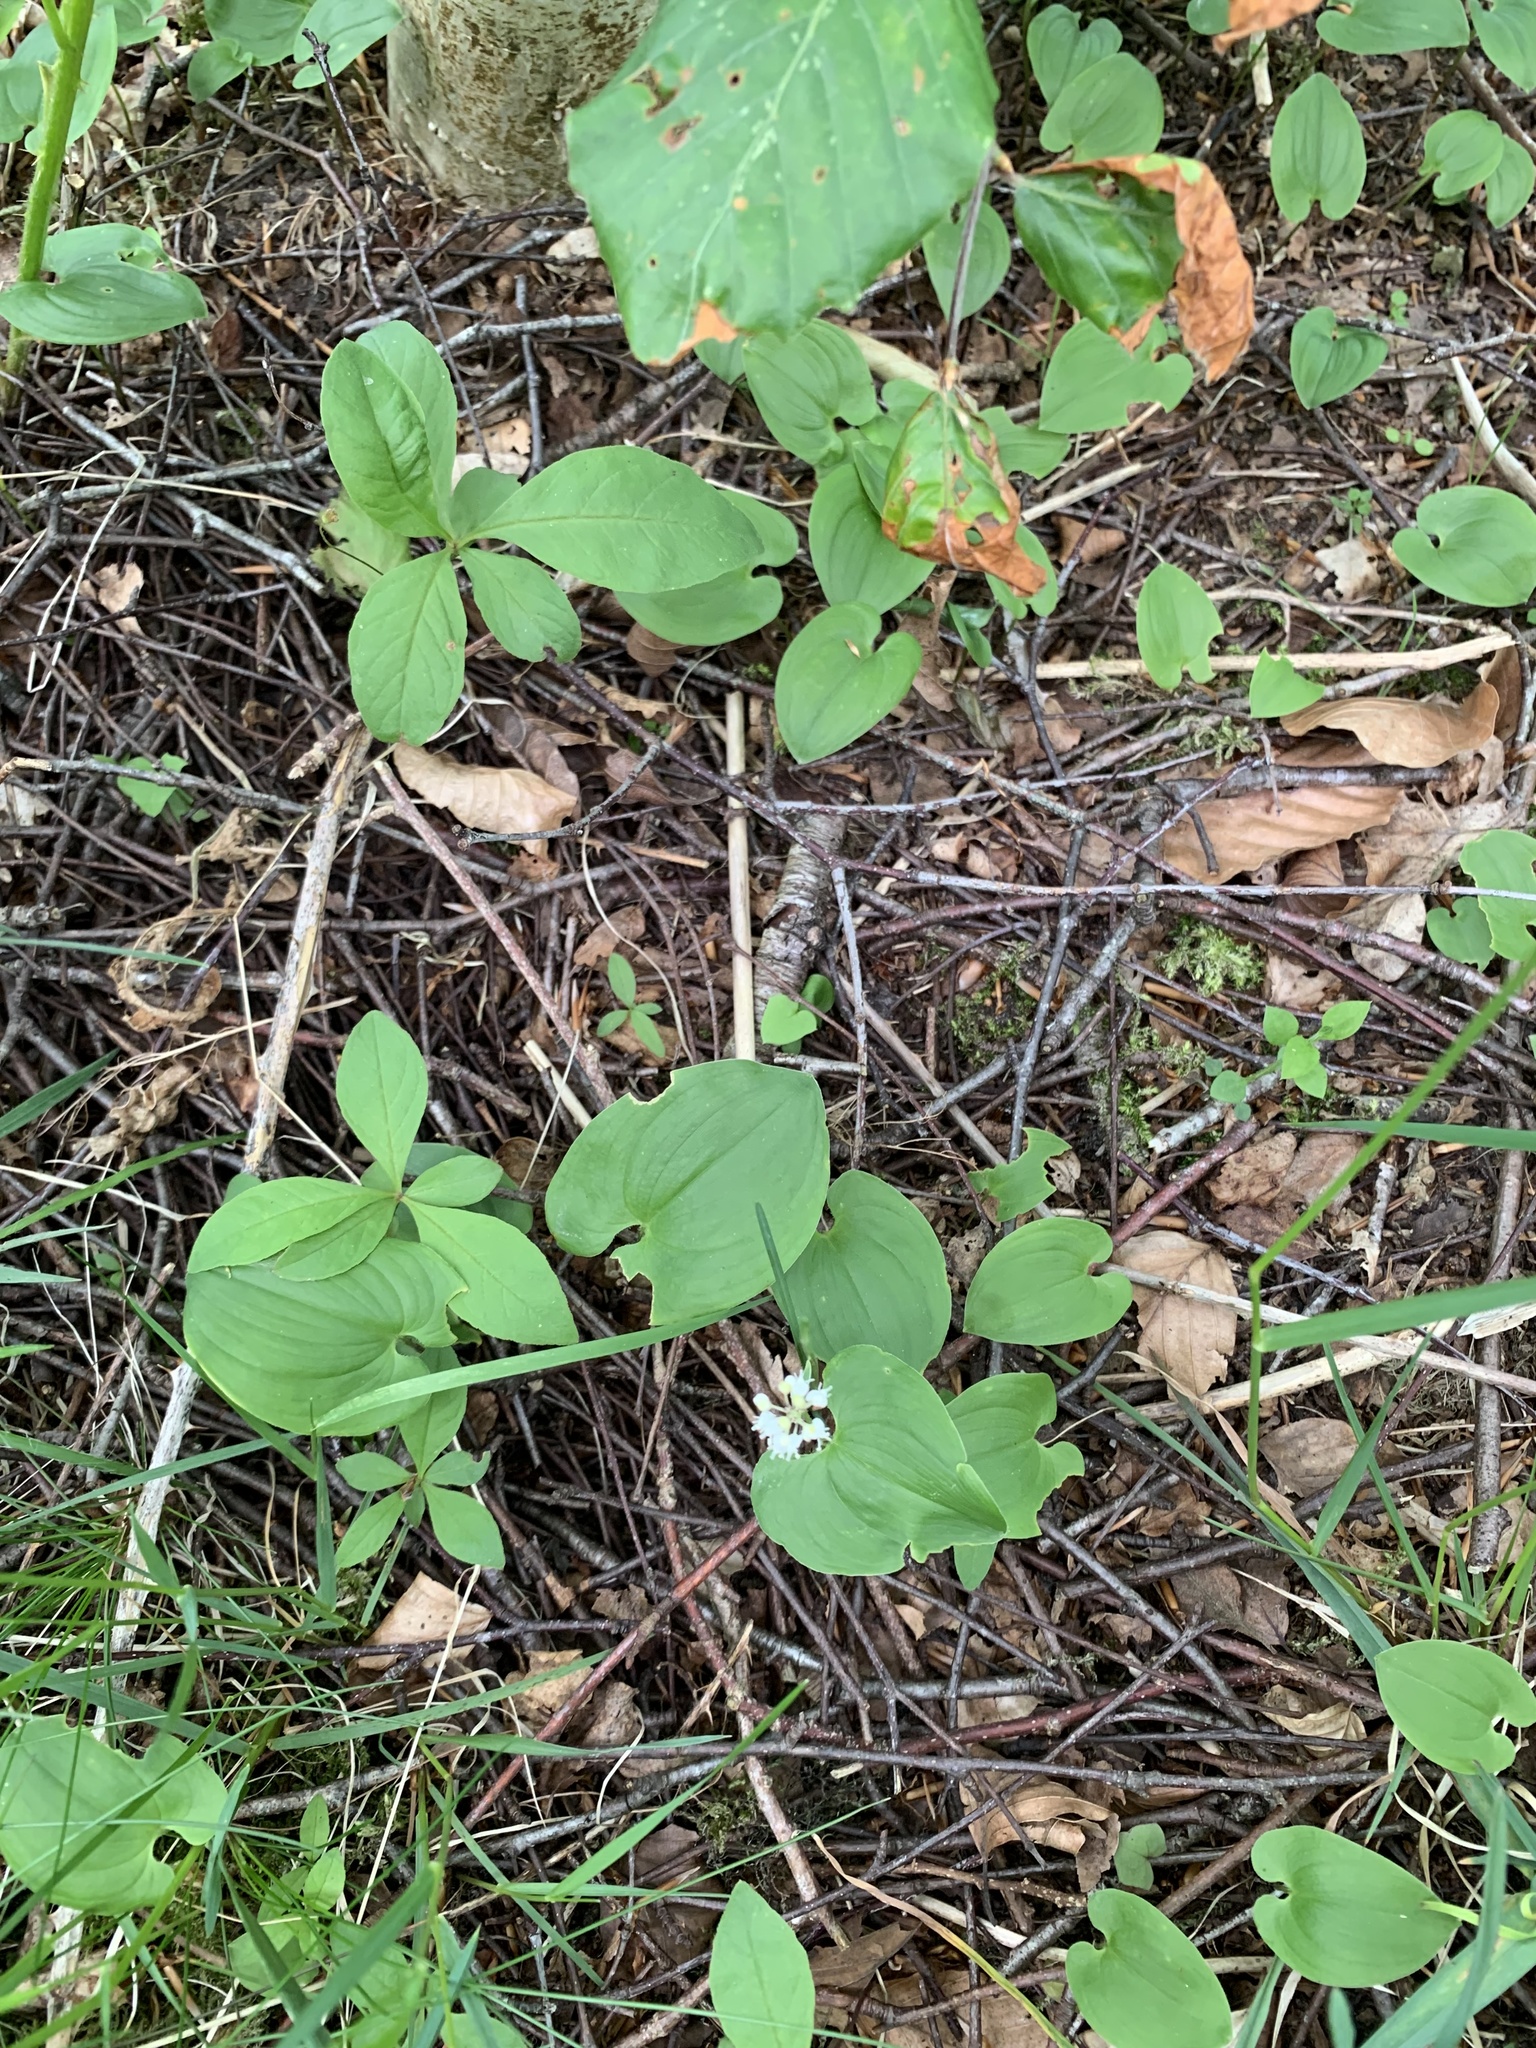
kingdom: Plantae
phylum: Tracheophyta
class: Liliopsida
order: Asparagales
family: Asparagaceae
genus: Maianthemum
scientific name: Maianthemum bifolium
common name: May lily
